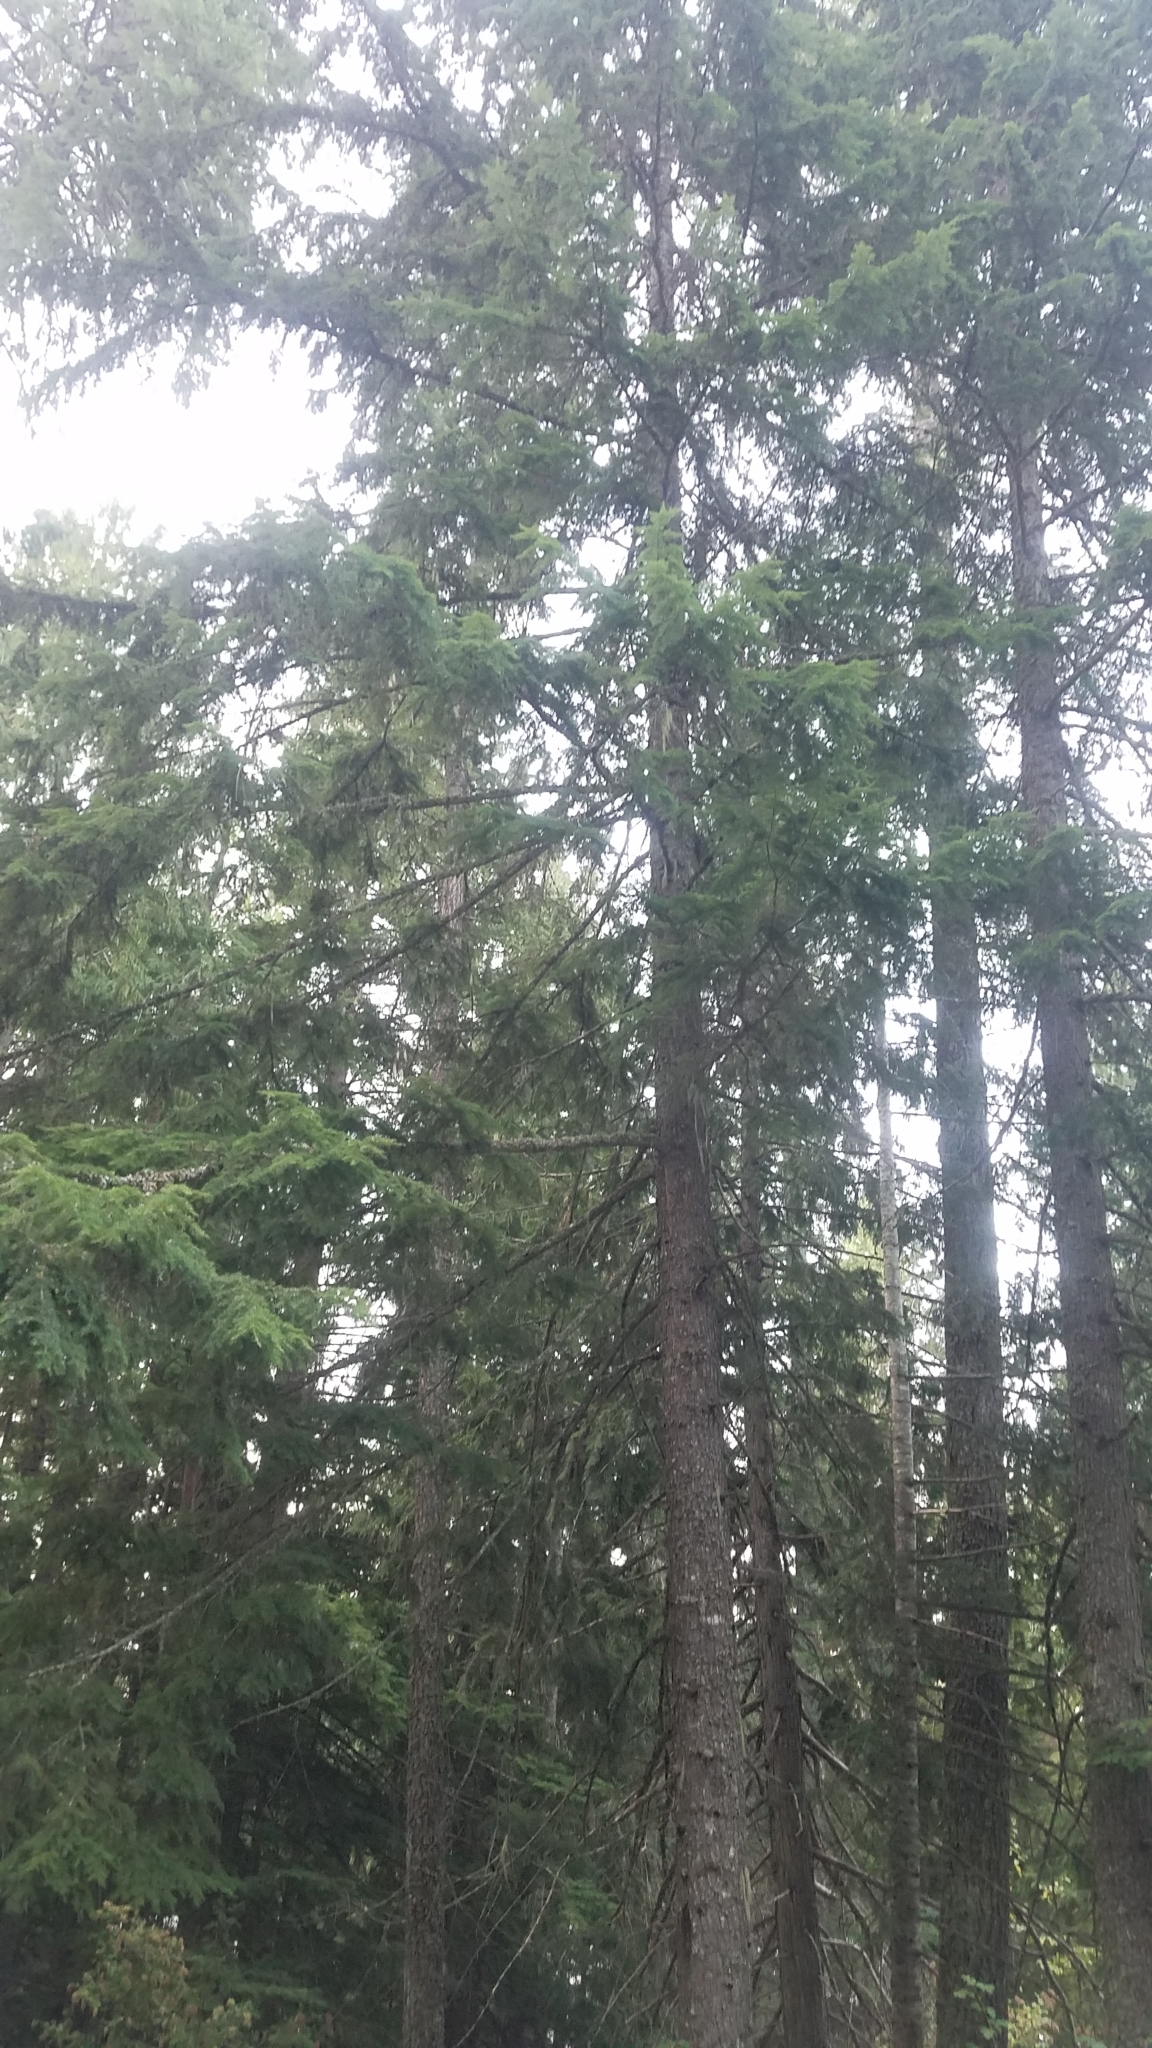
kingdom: Plantae
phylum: Tracheophyta
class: Pinopsida
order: Pinales
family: Pinaceae
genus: Tsuga
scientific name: Tsuga heterophylla
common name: Western hemlock
